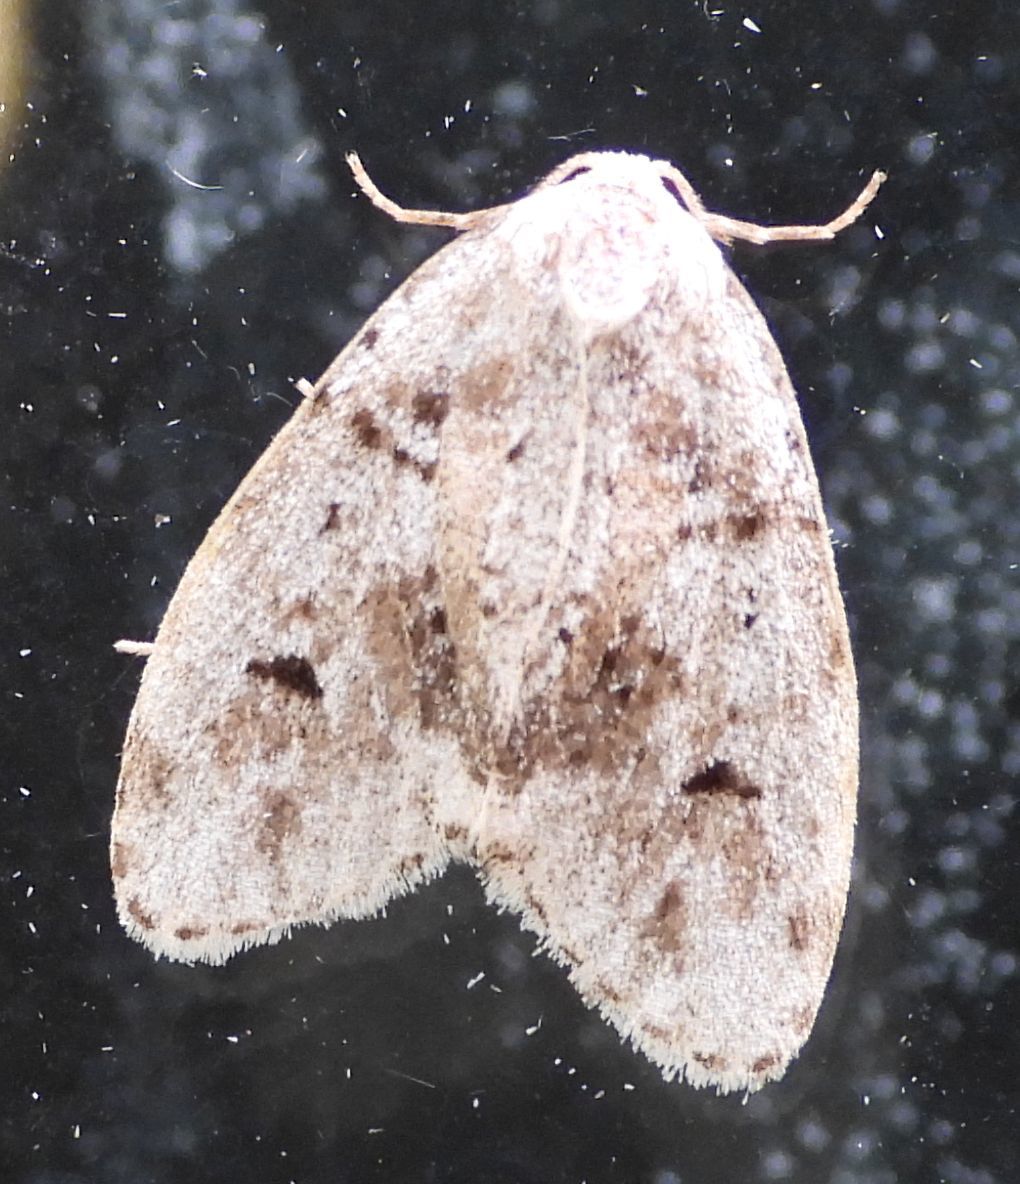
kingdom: Animalia
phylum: Arthropoda
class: Insecta
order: Lepidoptera
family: Erebidae
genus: Clemensia
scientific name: Clemensia albata
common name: Little white lichen moth
